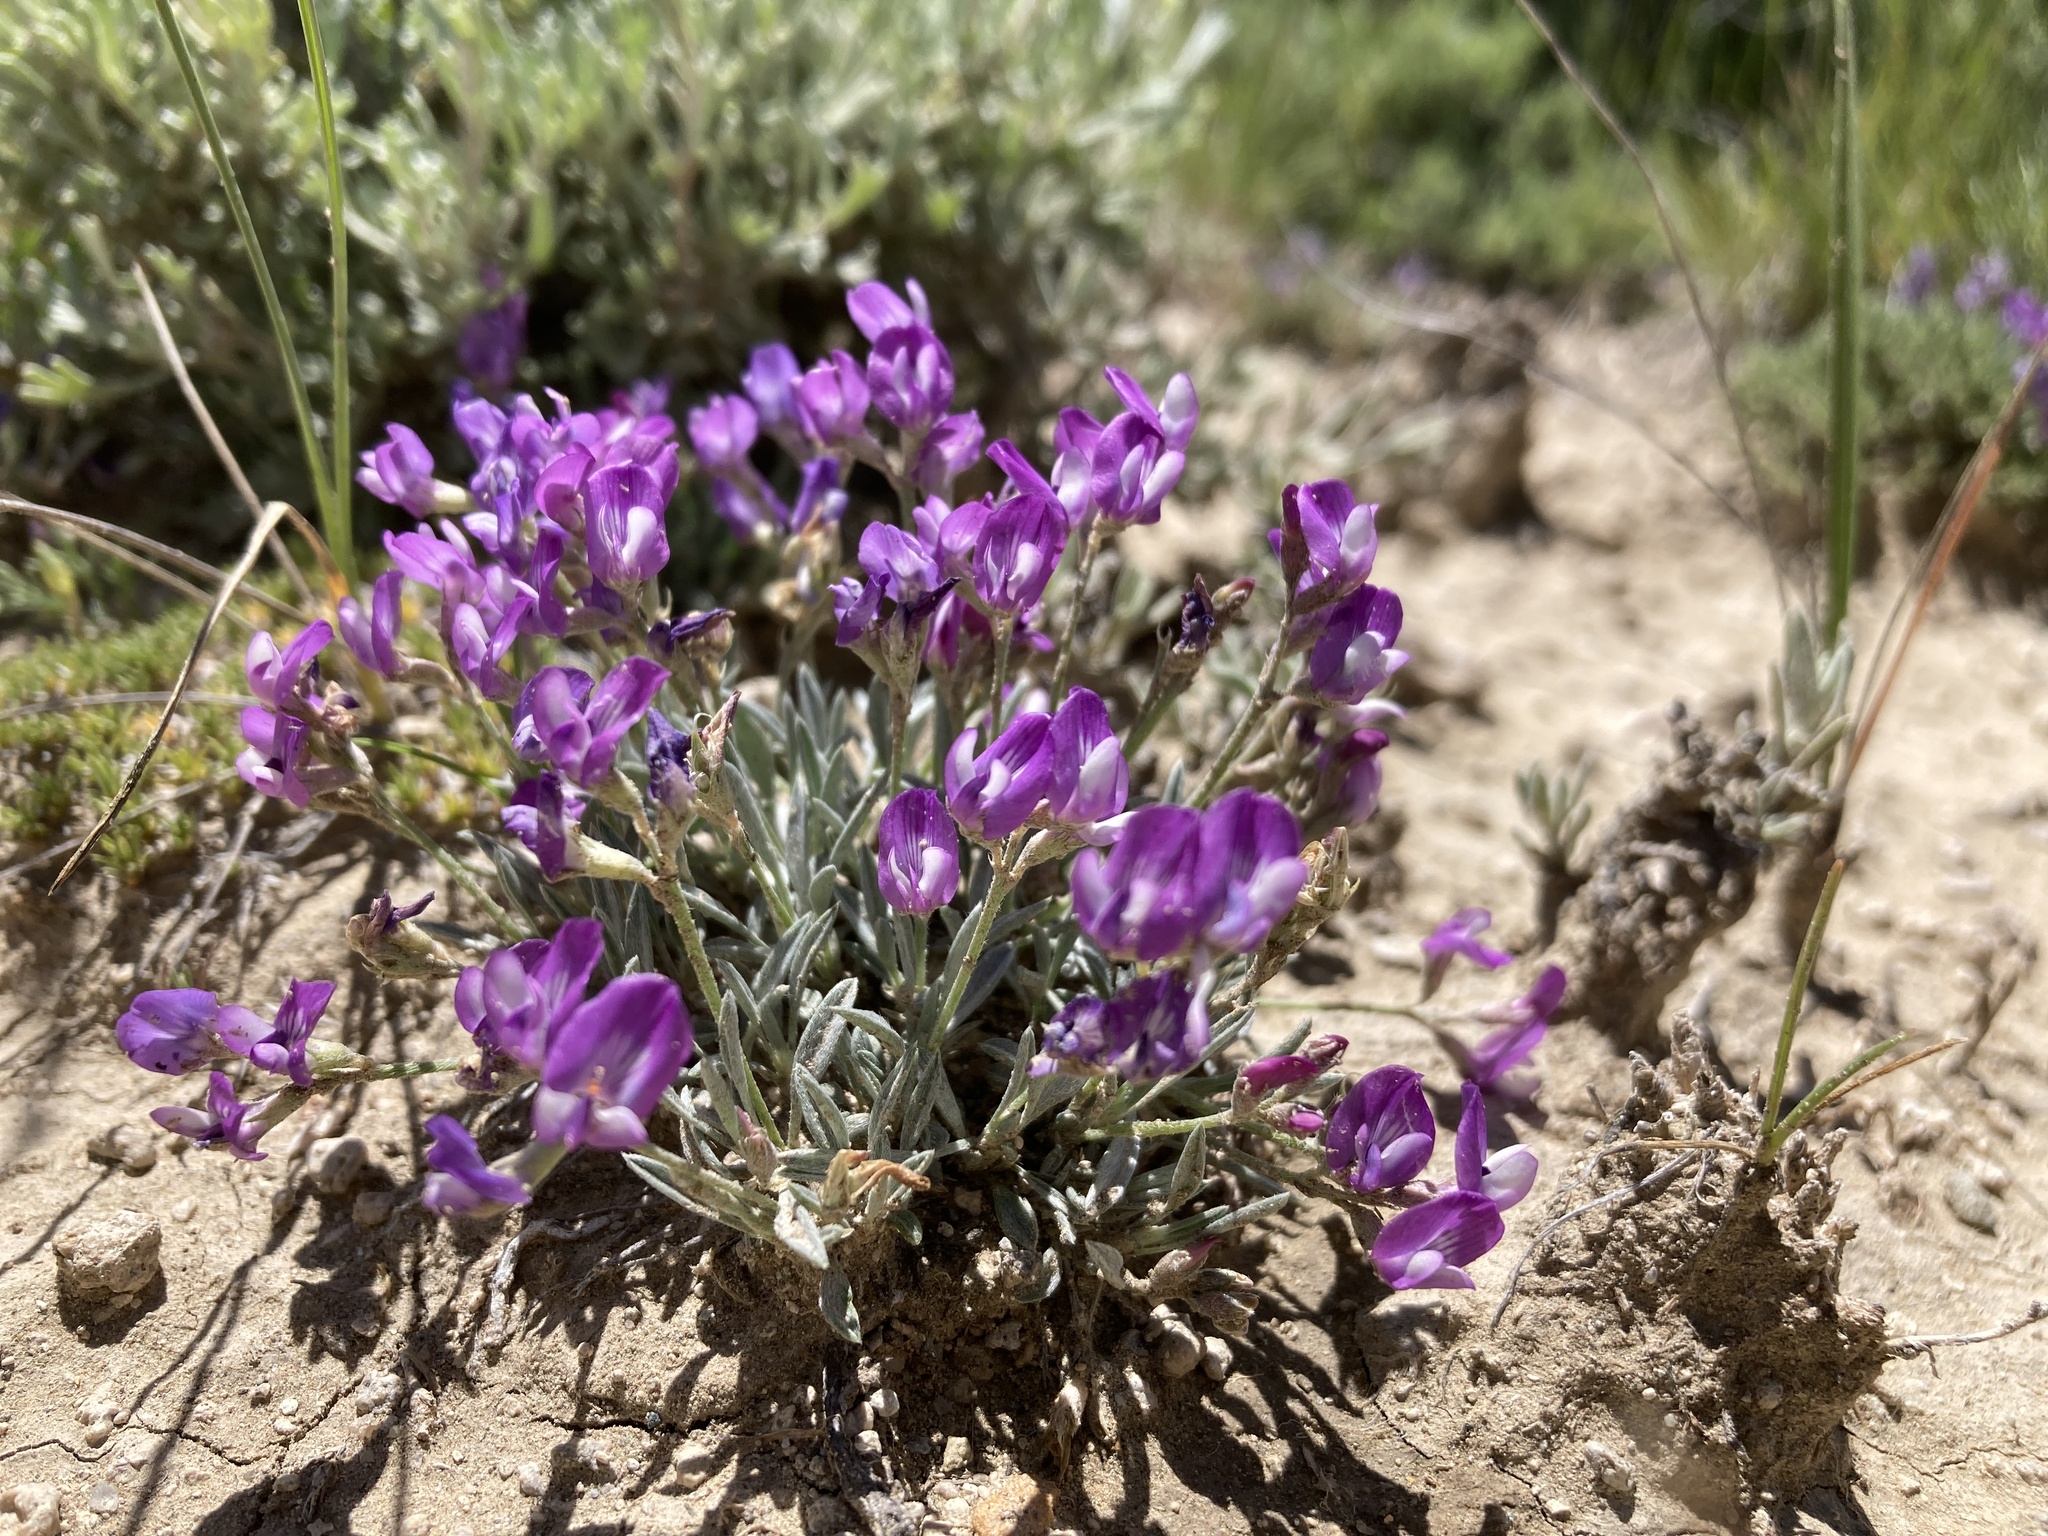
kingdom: Plantae
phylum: Tracheophyta
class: Magnoliopsida
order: Fabales
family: Fabaceae
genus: Astragalus
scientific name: Astragalus spatulatus
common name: Draba milk-vetch
